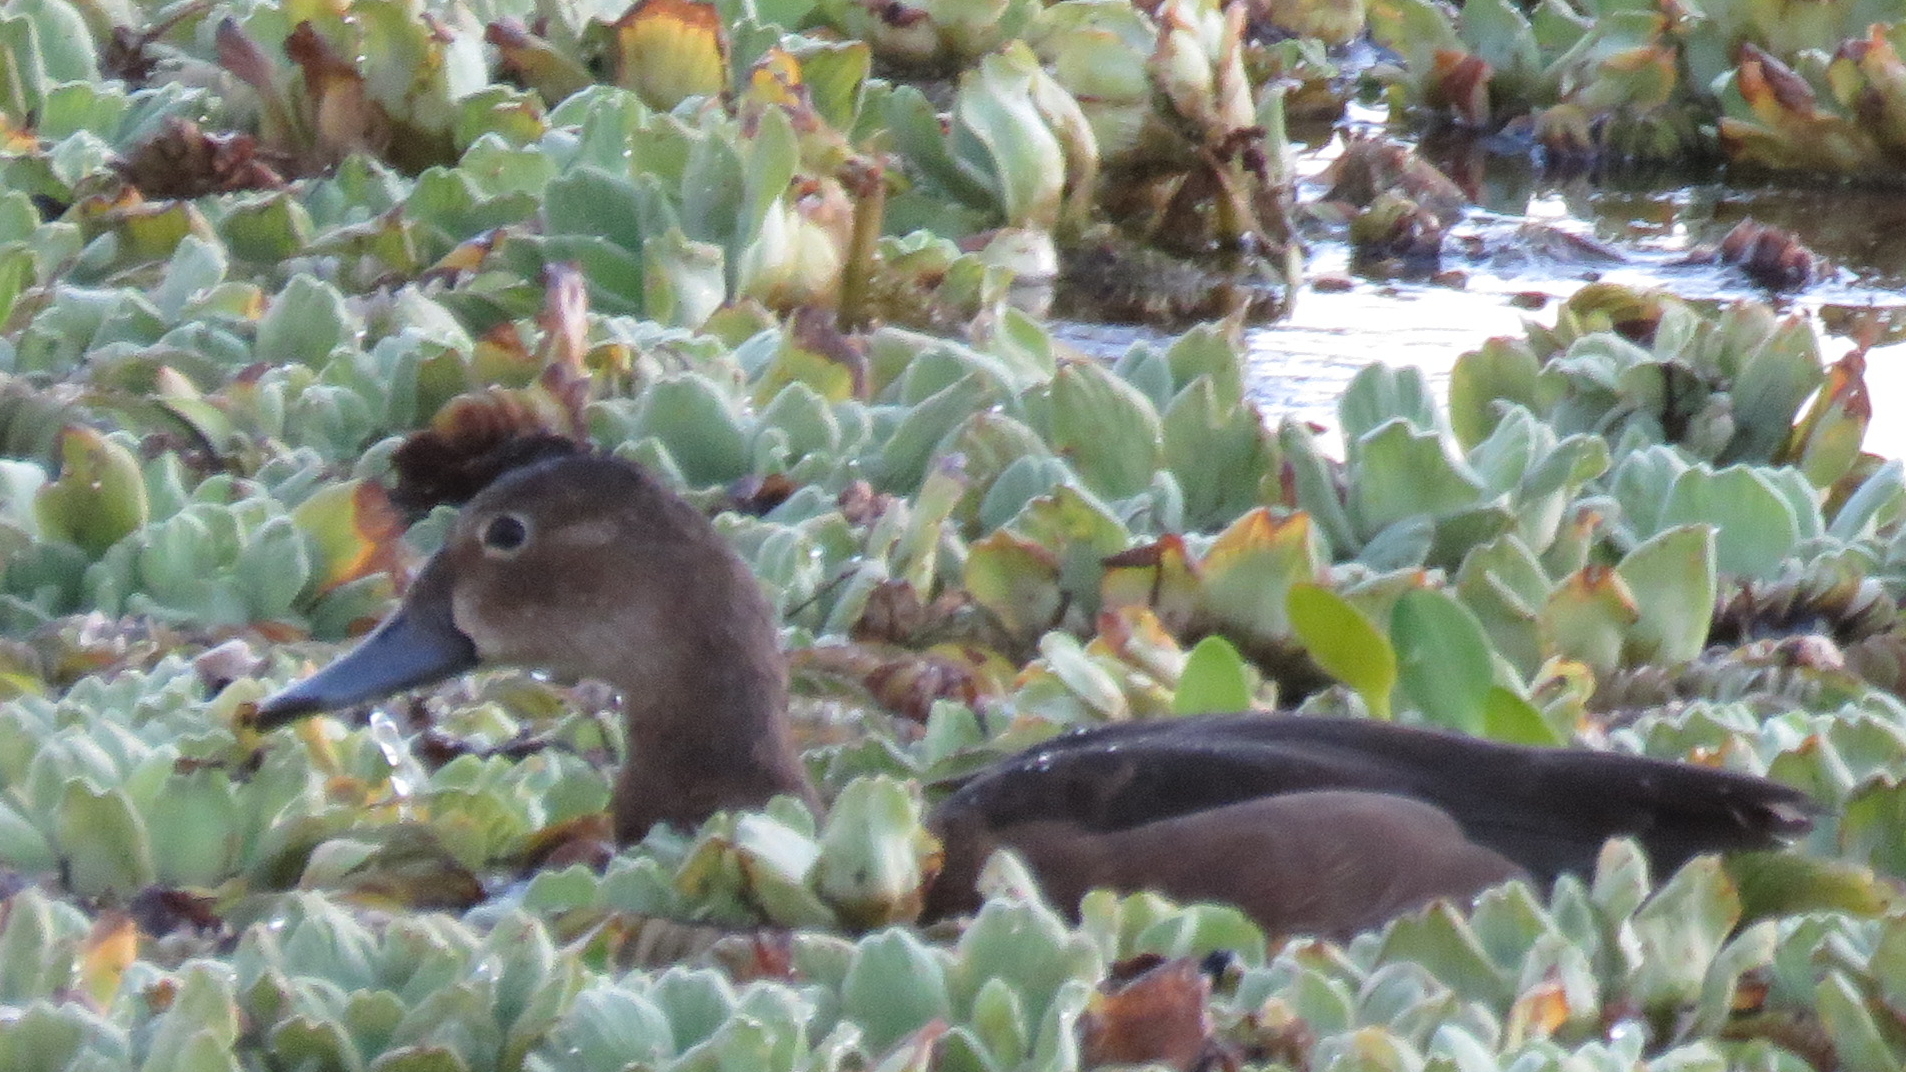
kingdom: Animalia
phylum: Chordata
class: Aves
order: Anseriformes
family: Anatidae
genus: Netta
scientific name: Netta peposaca
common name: Rosy-billed pochard
